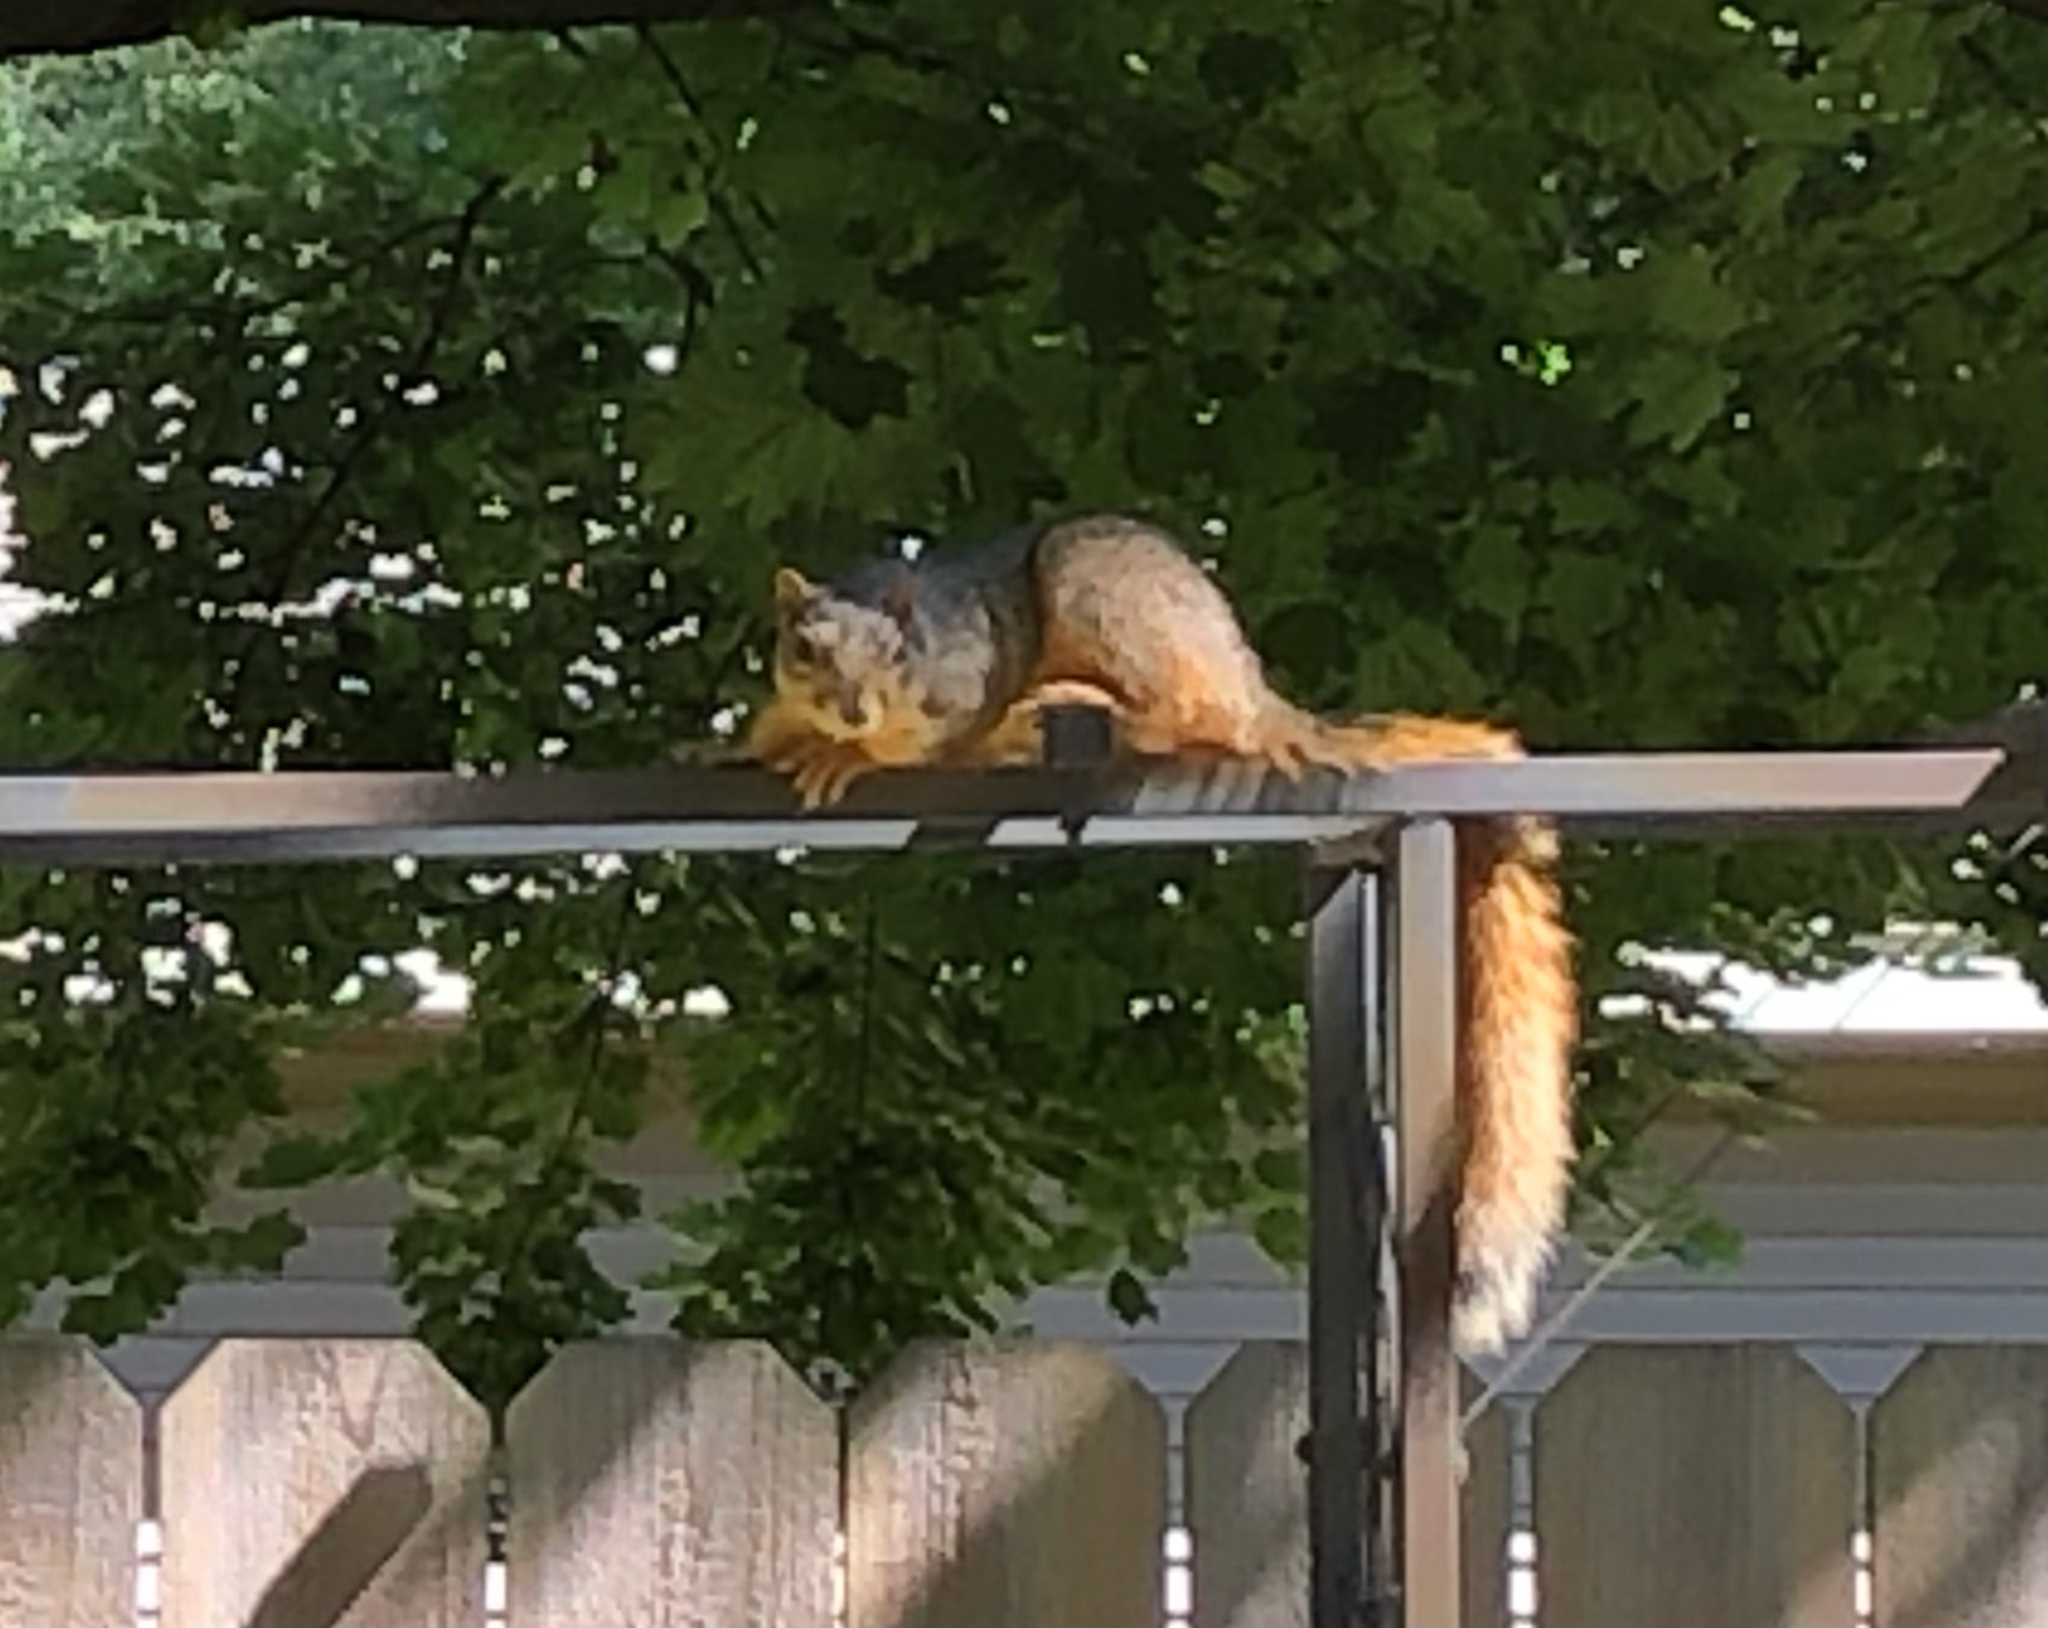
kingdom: Animalia
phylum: Chordata
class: Mammalia
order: Rodentia
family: Sciuridae
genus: Sciurus
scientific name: Sciurus niger
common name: Fox squirrel
